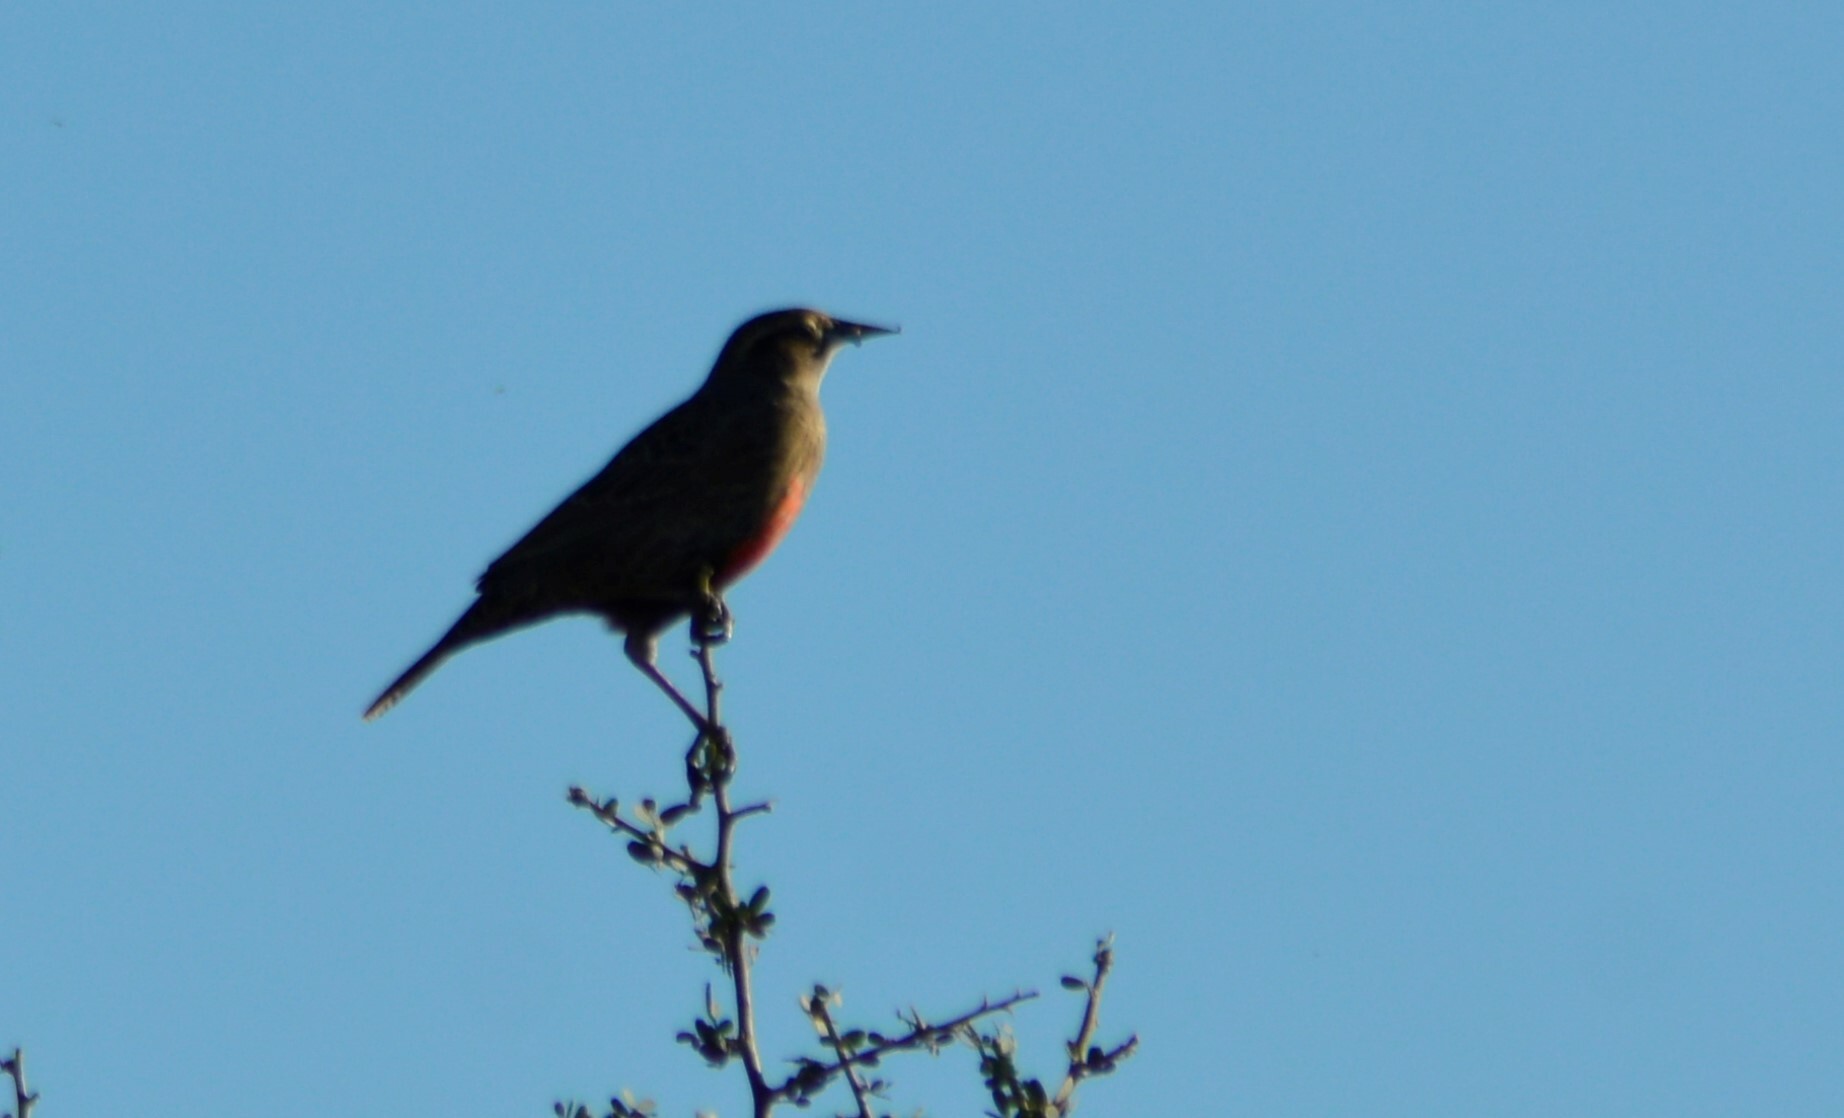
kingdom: Animalia
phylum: Chordata
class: Aves
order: Passeriformes
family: Icteridae
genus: Sturnella
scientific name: Sturnella loyca
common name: Long-tailed meadowlark
